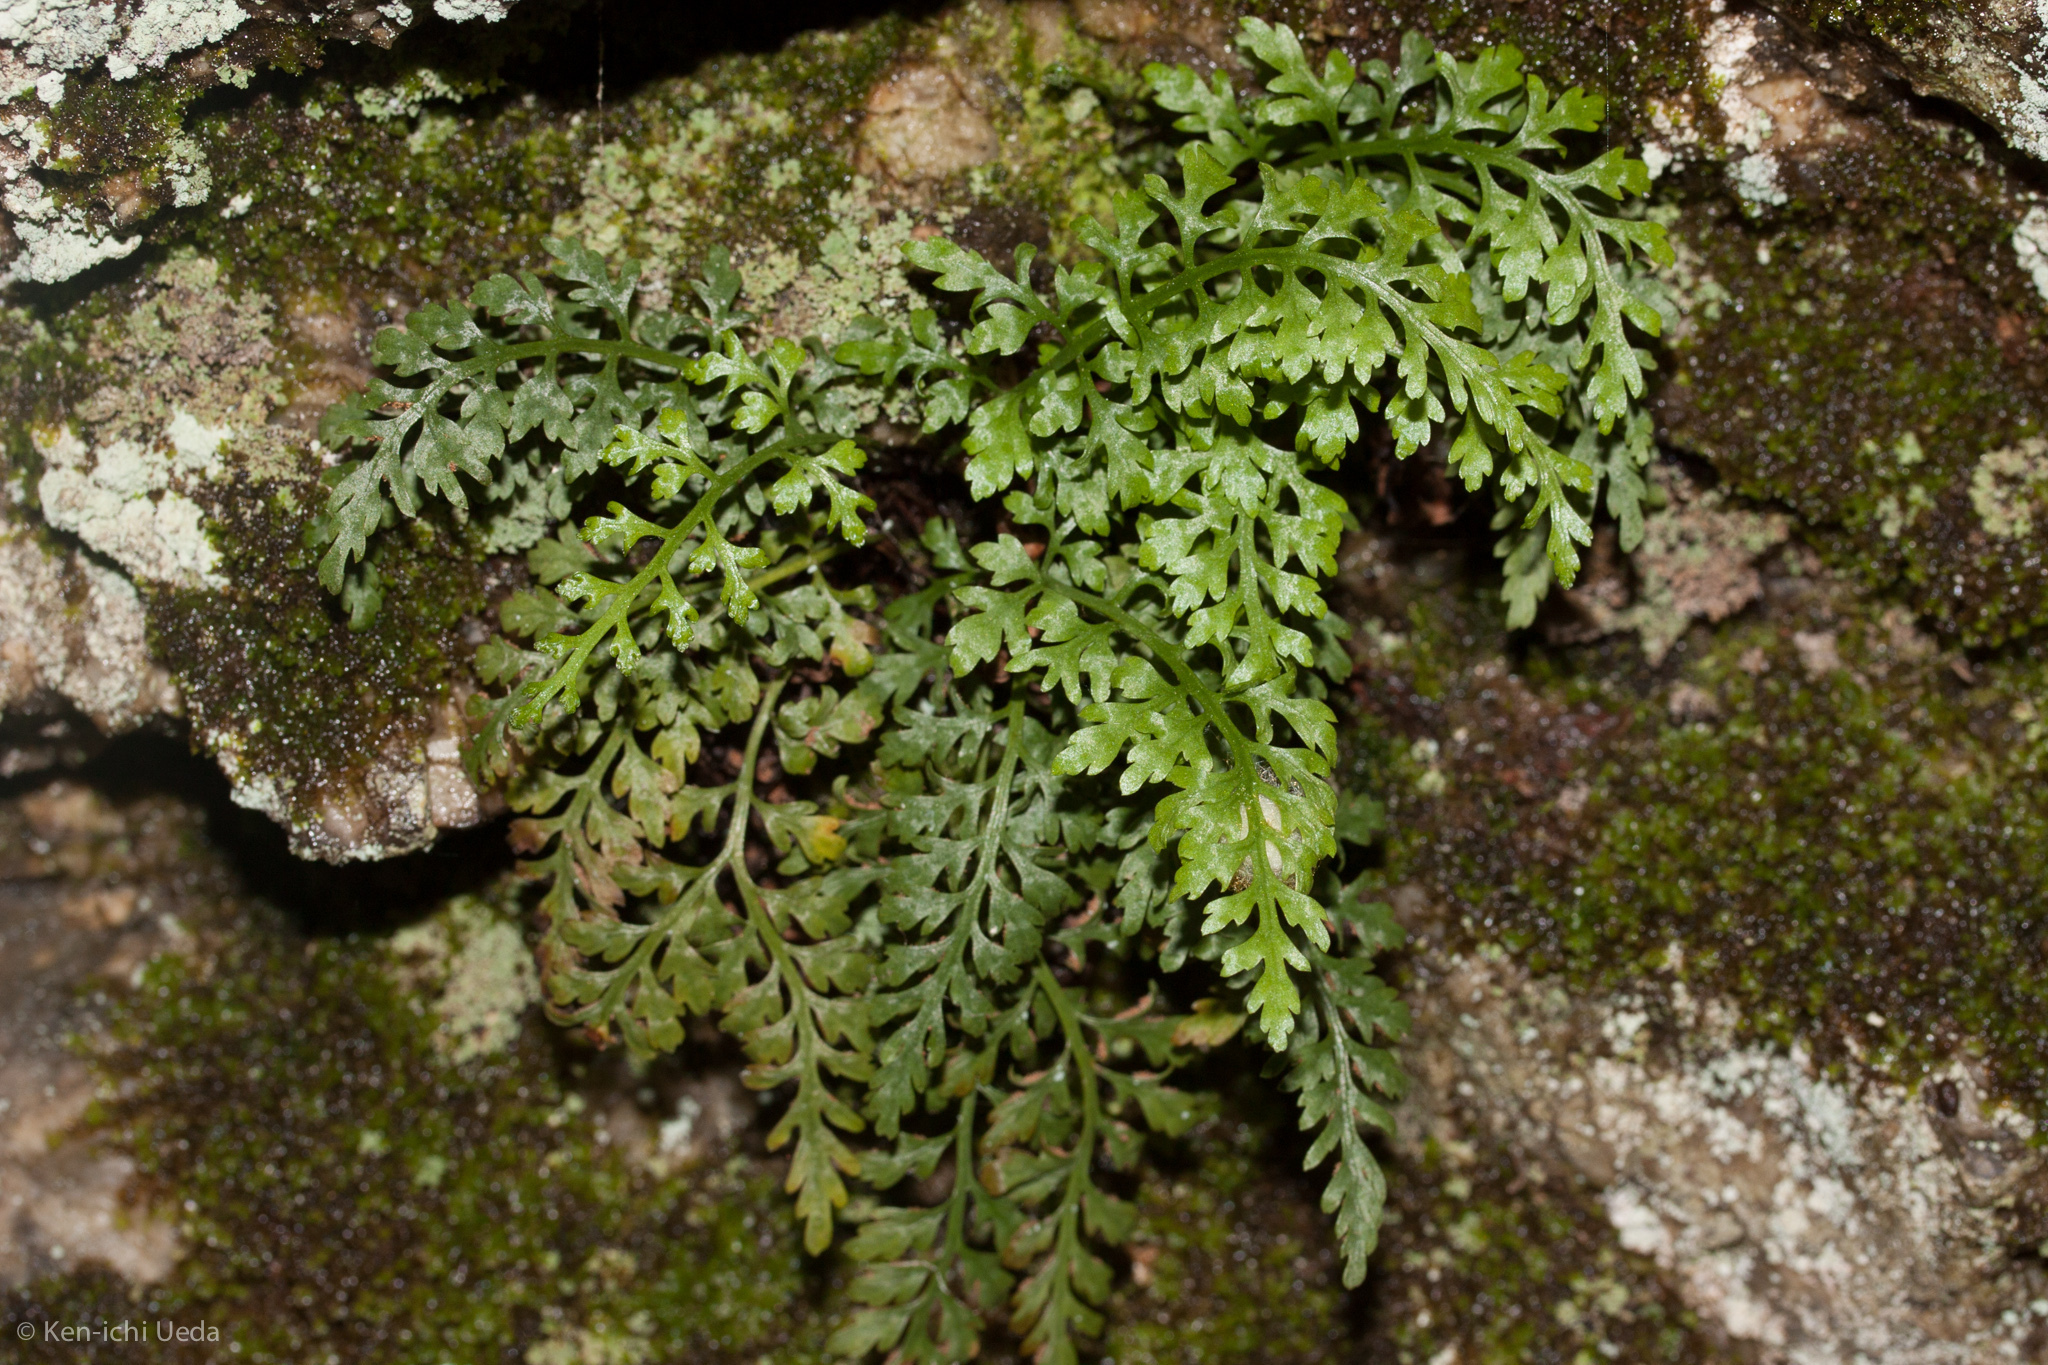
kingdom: Plantae
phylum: Tracheophyta
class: Polypodiopsida
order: Polypodiales
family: Aspleniaceae
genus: Asplenium
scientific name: Asplenium montanum
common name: Mountain spleenwort
